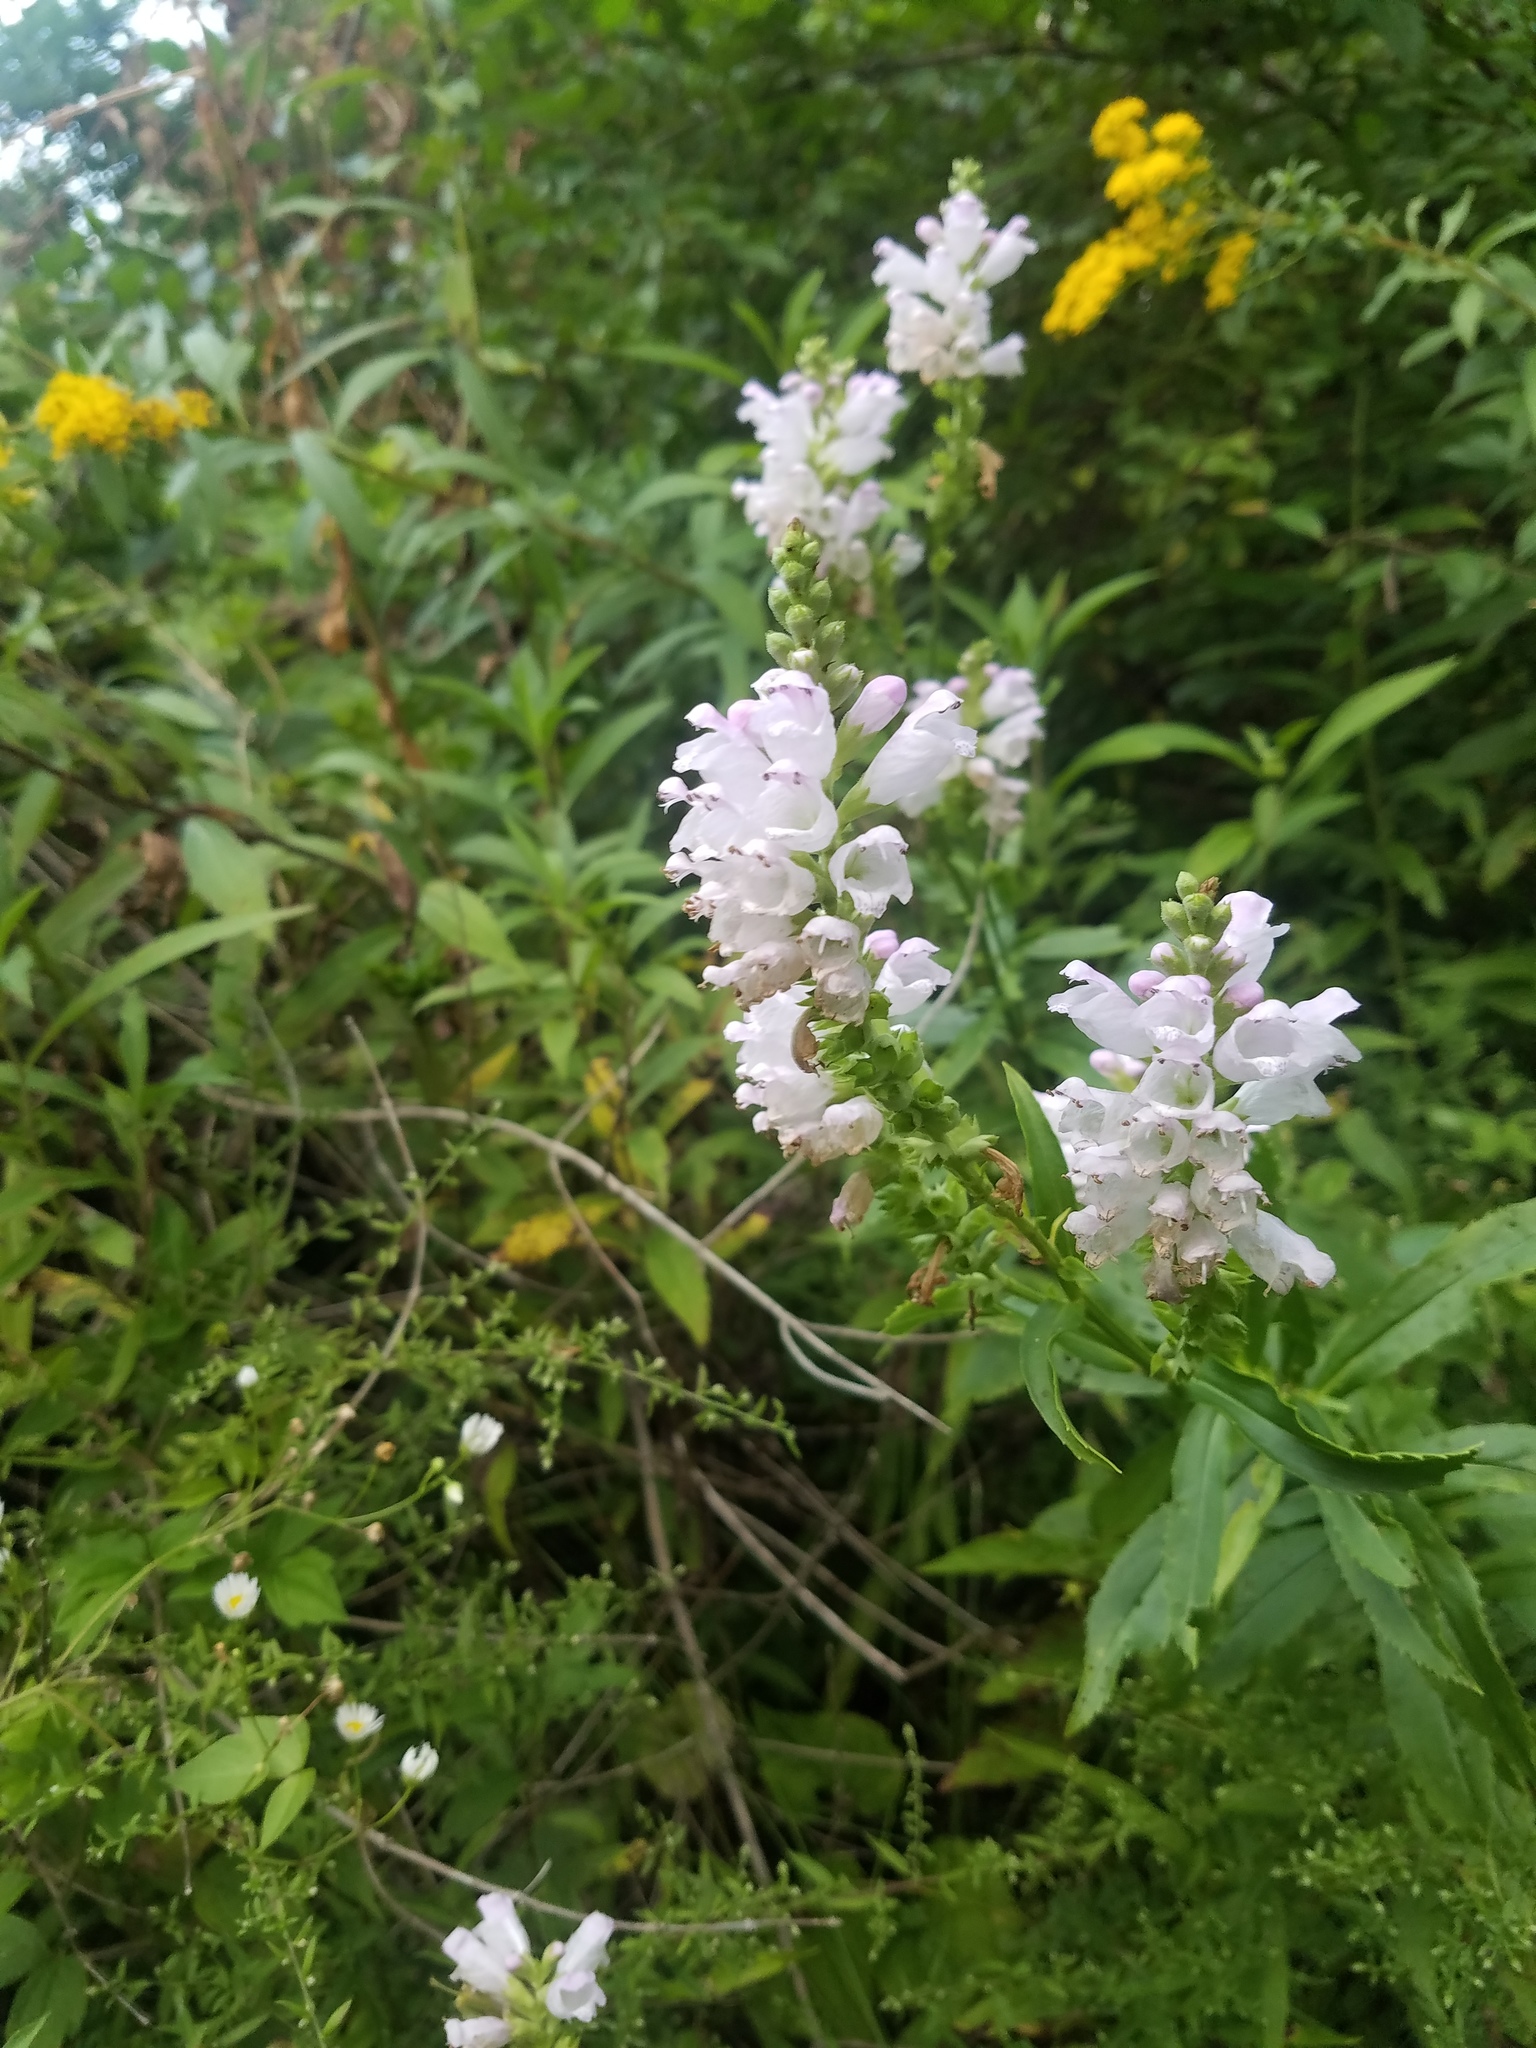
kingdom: Plantae
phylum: Tracheophyta
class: Magnoliopsida
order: Lamiales
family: Lamiaceae
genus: Physostegia
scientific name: Physostegia virginiana
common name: Obedient-plant
